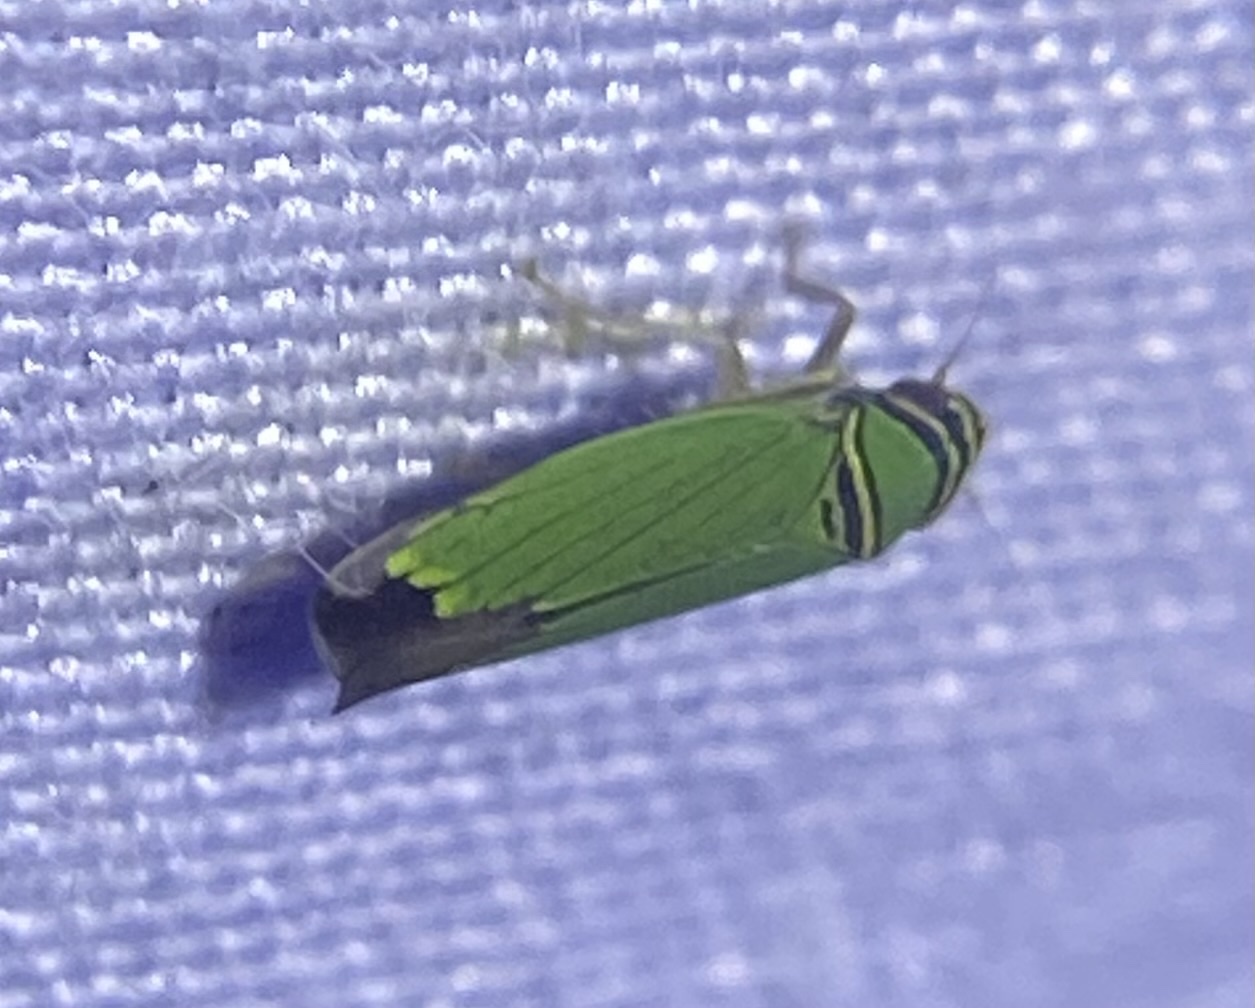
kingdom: Animalia
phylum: Arthropoda
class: Insecta
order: Hemiptera
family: Cicadellidae
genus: Tylozygus
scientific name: Tylozygus geometricus
